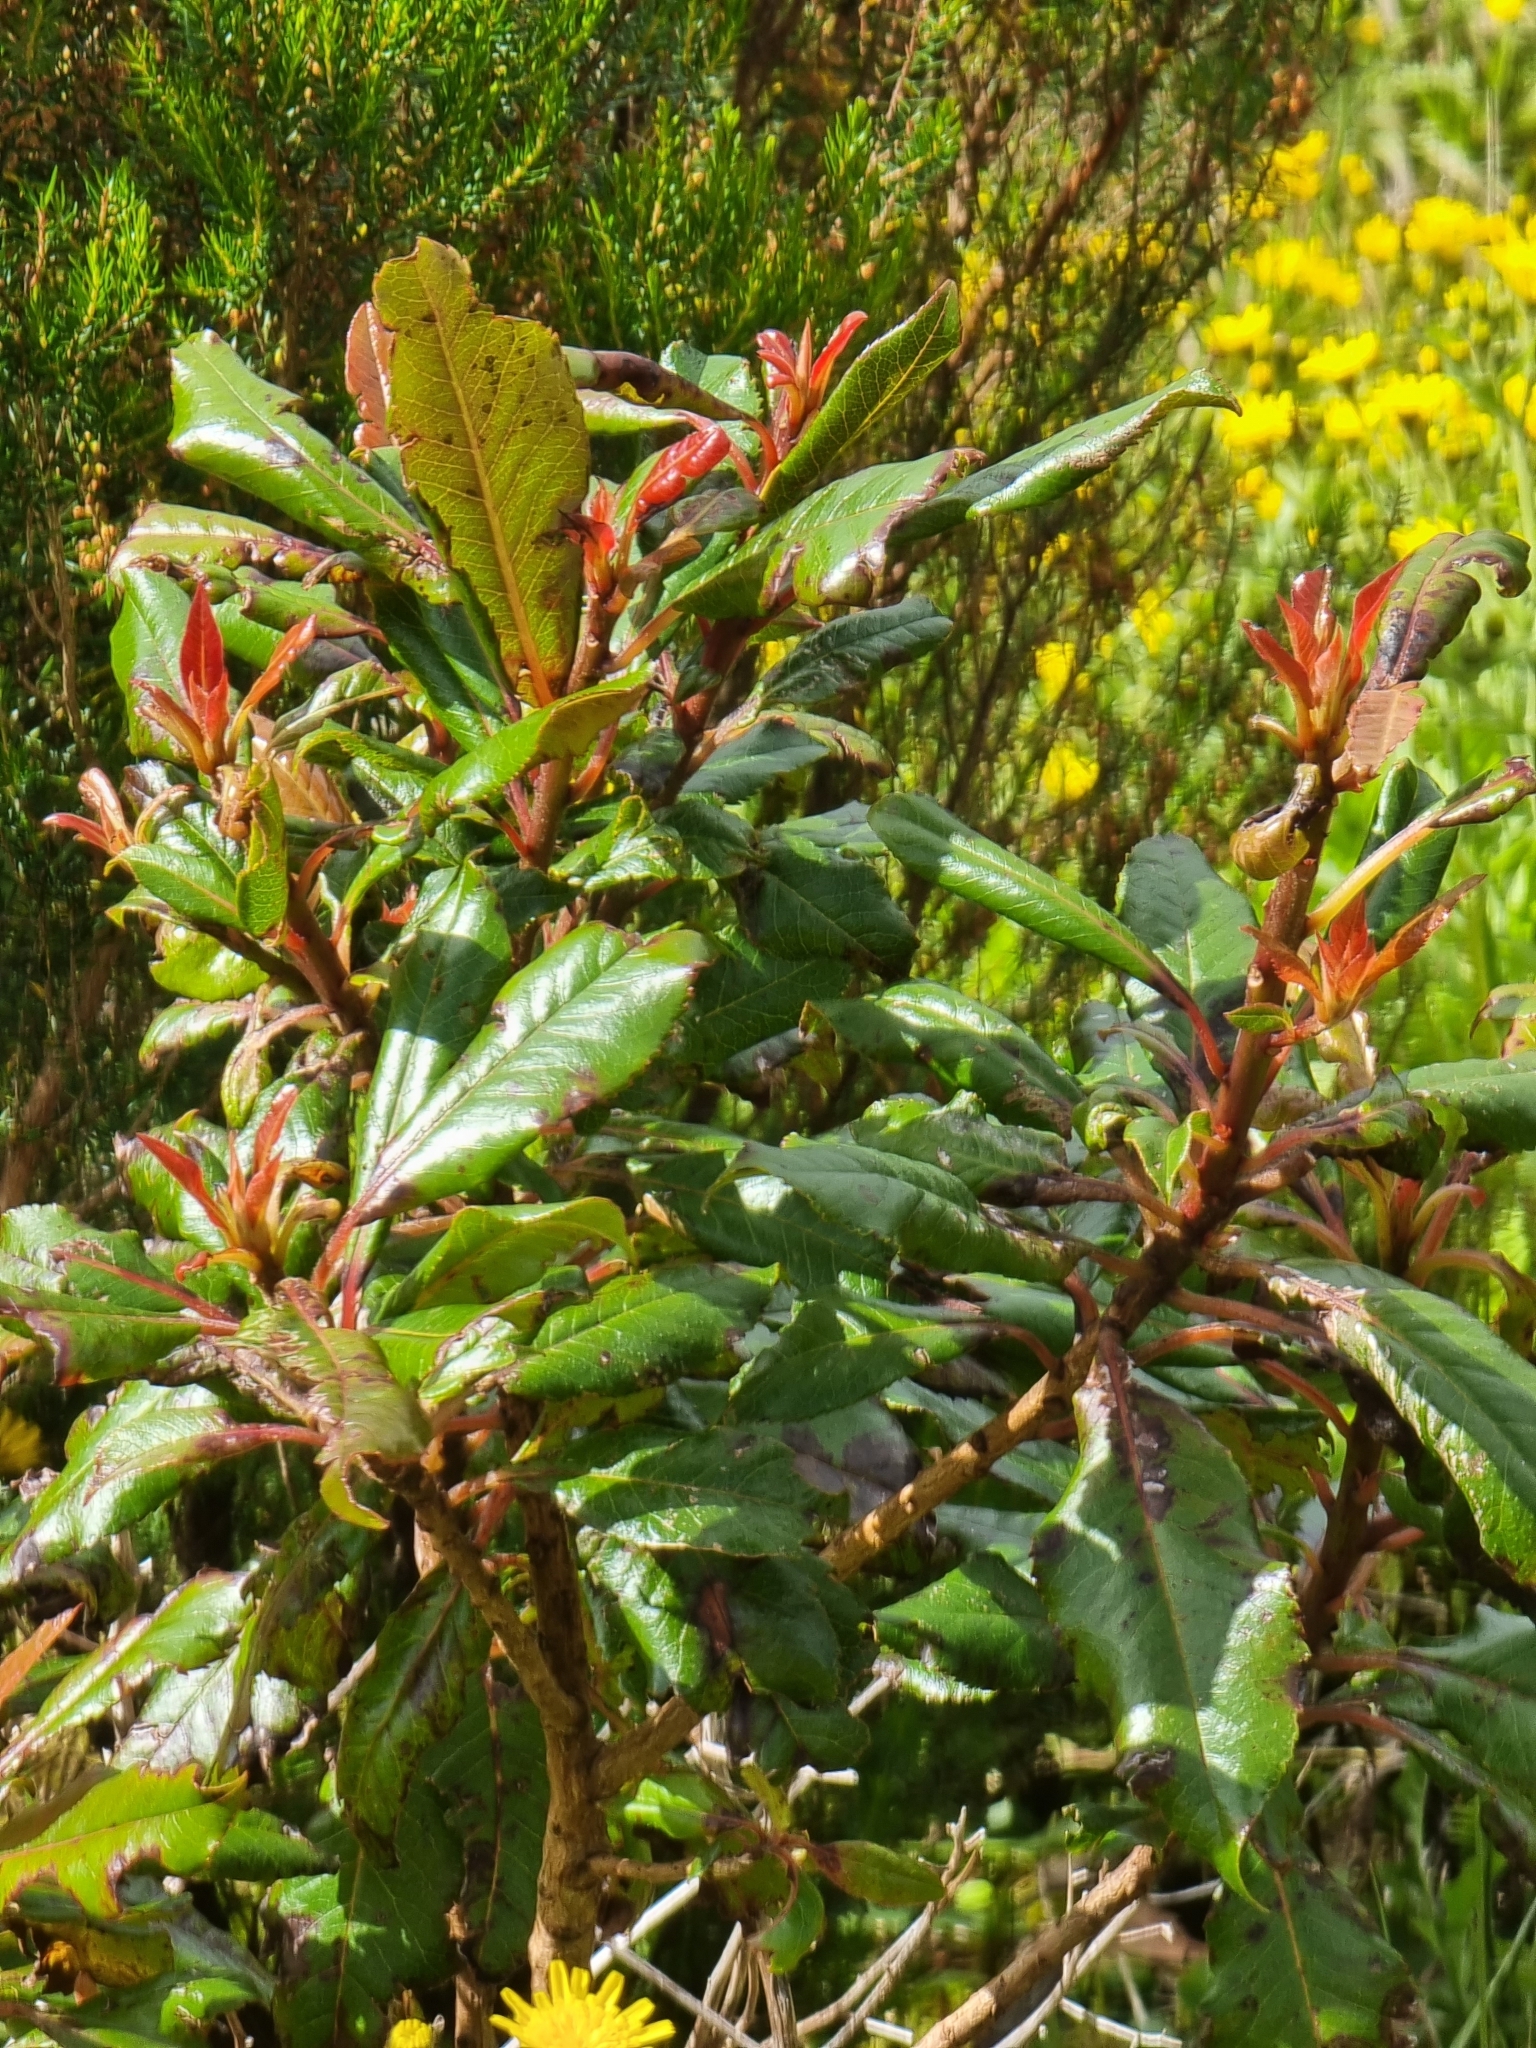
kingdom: Plantae
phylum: Tracheophyta
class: Magnoliopsida
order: Ericales
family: Clethraceae
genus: Clethra
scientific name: Clethra arborea
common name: Lily-of-the-valley-tree
